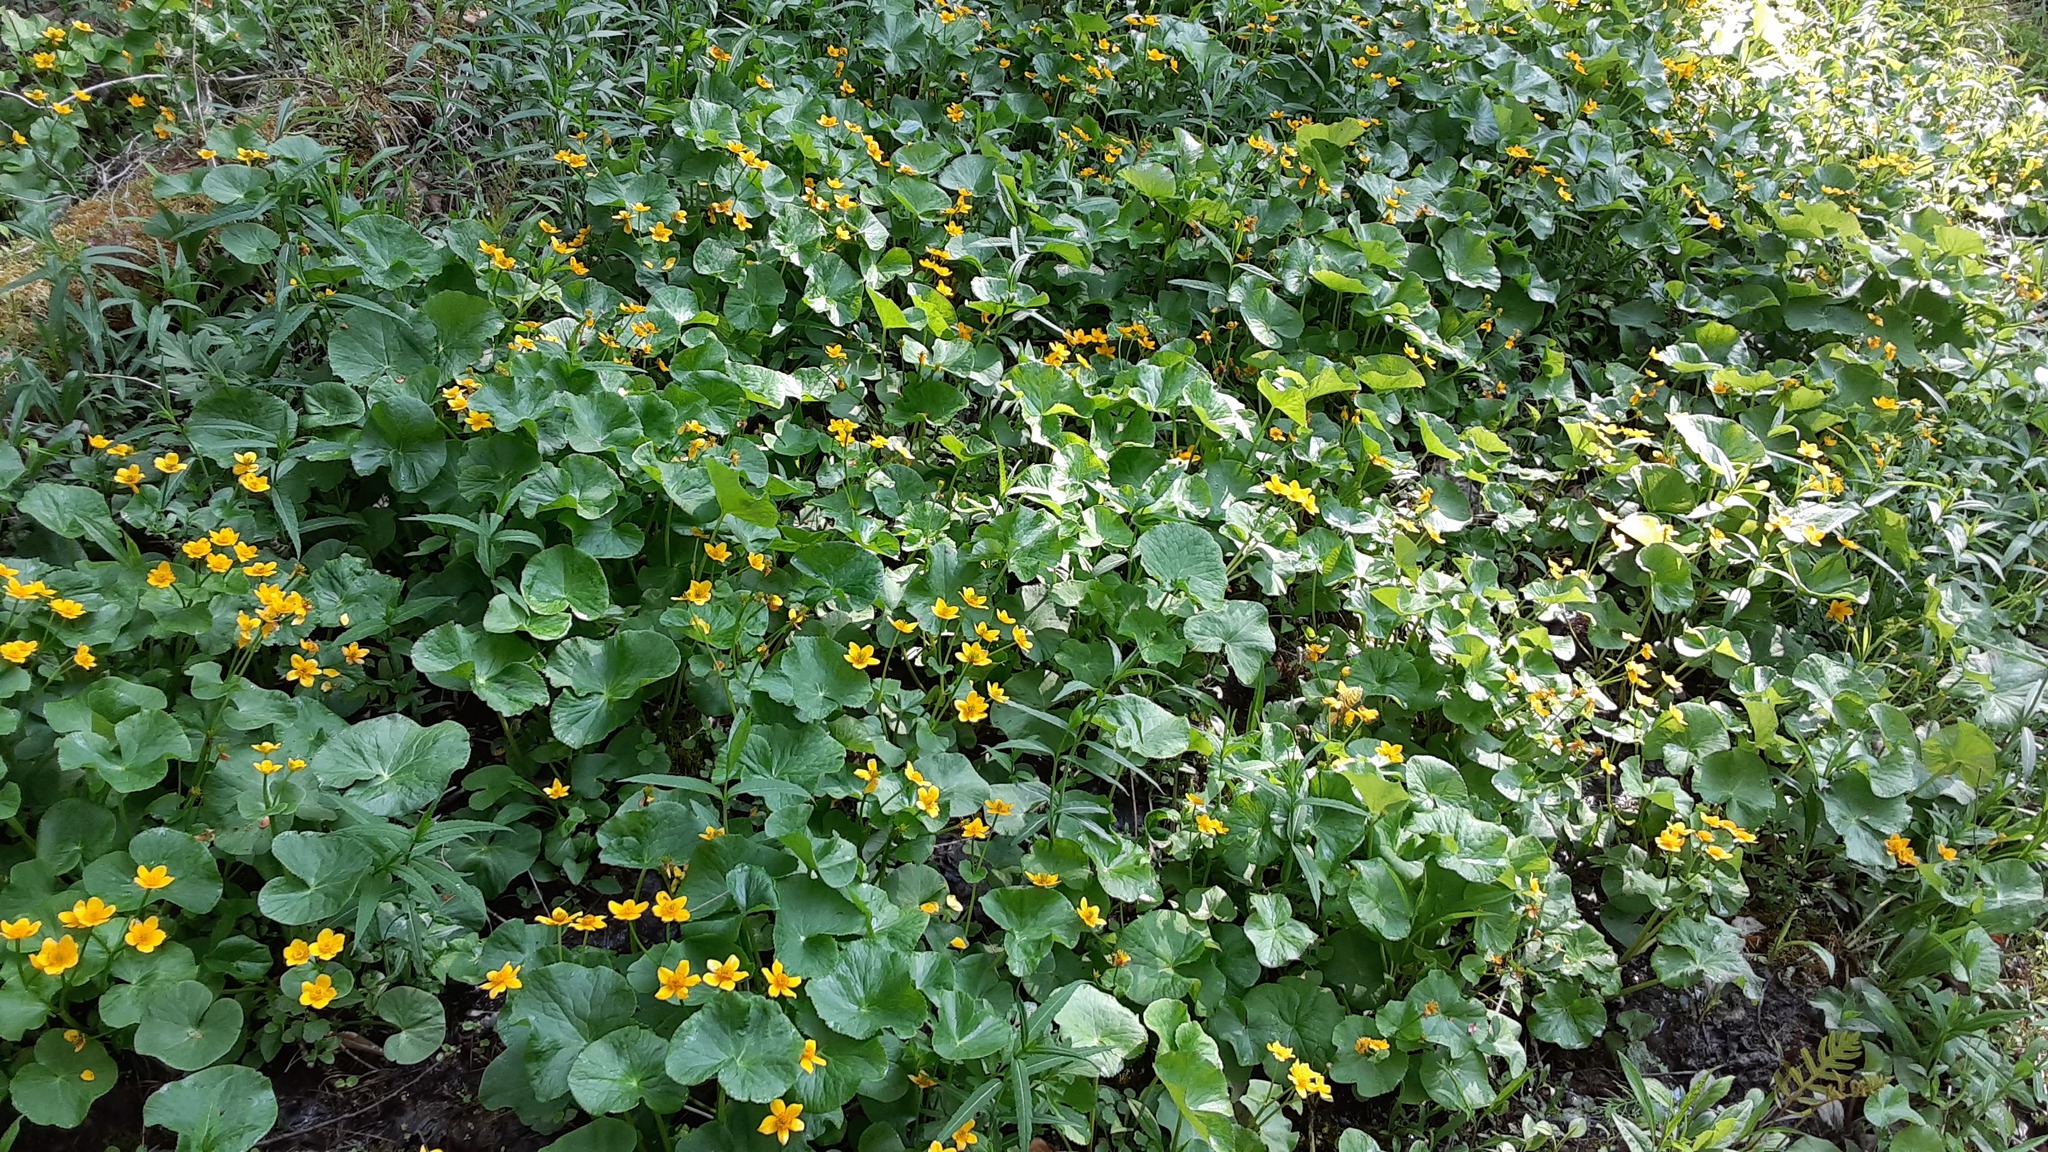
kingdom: Plantae
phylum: Tracheophyta
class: Magnoliopsida
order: Ranunculales
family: Ranunculaceae
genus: Caltha
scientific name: Caltha palustris
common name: Marsh marigold
